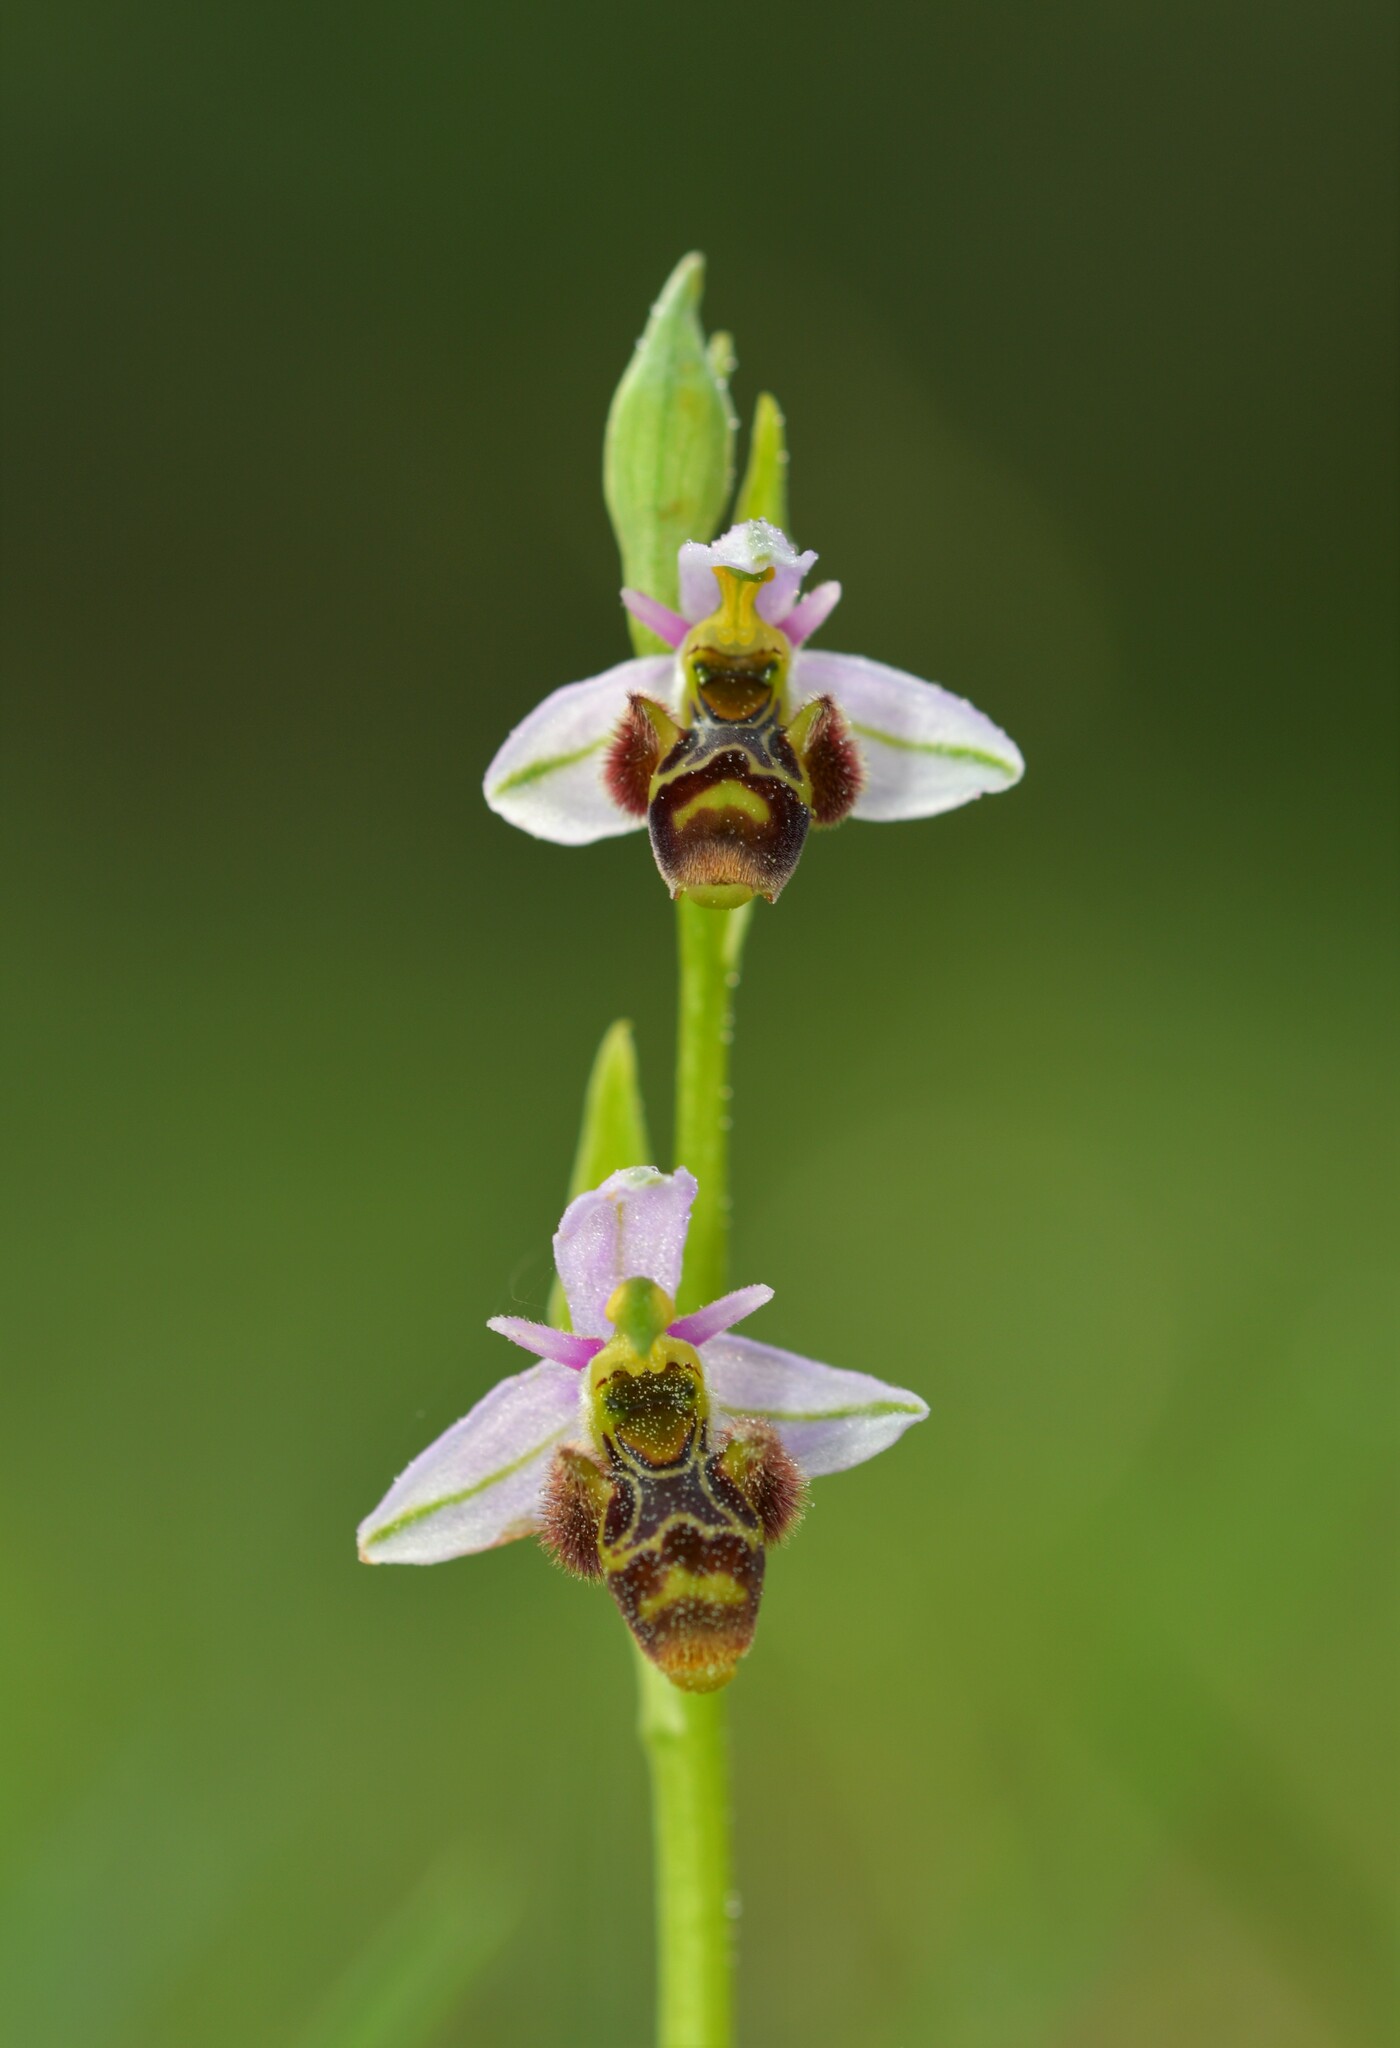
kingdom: Plantae
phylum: Tracheophyta
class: Liliopsida
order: Asparagales
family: Orchidaceae
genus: Ophrys
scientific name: Ophrys scolopax
